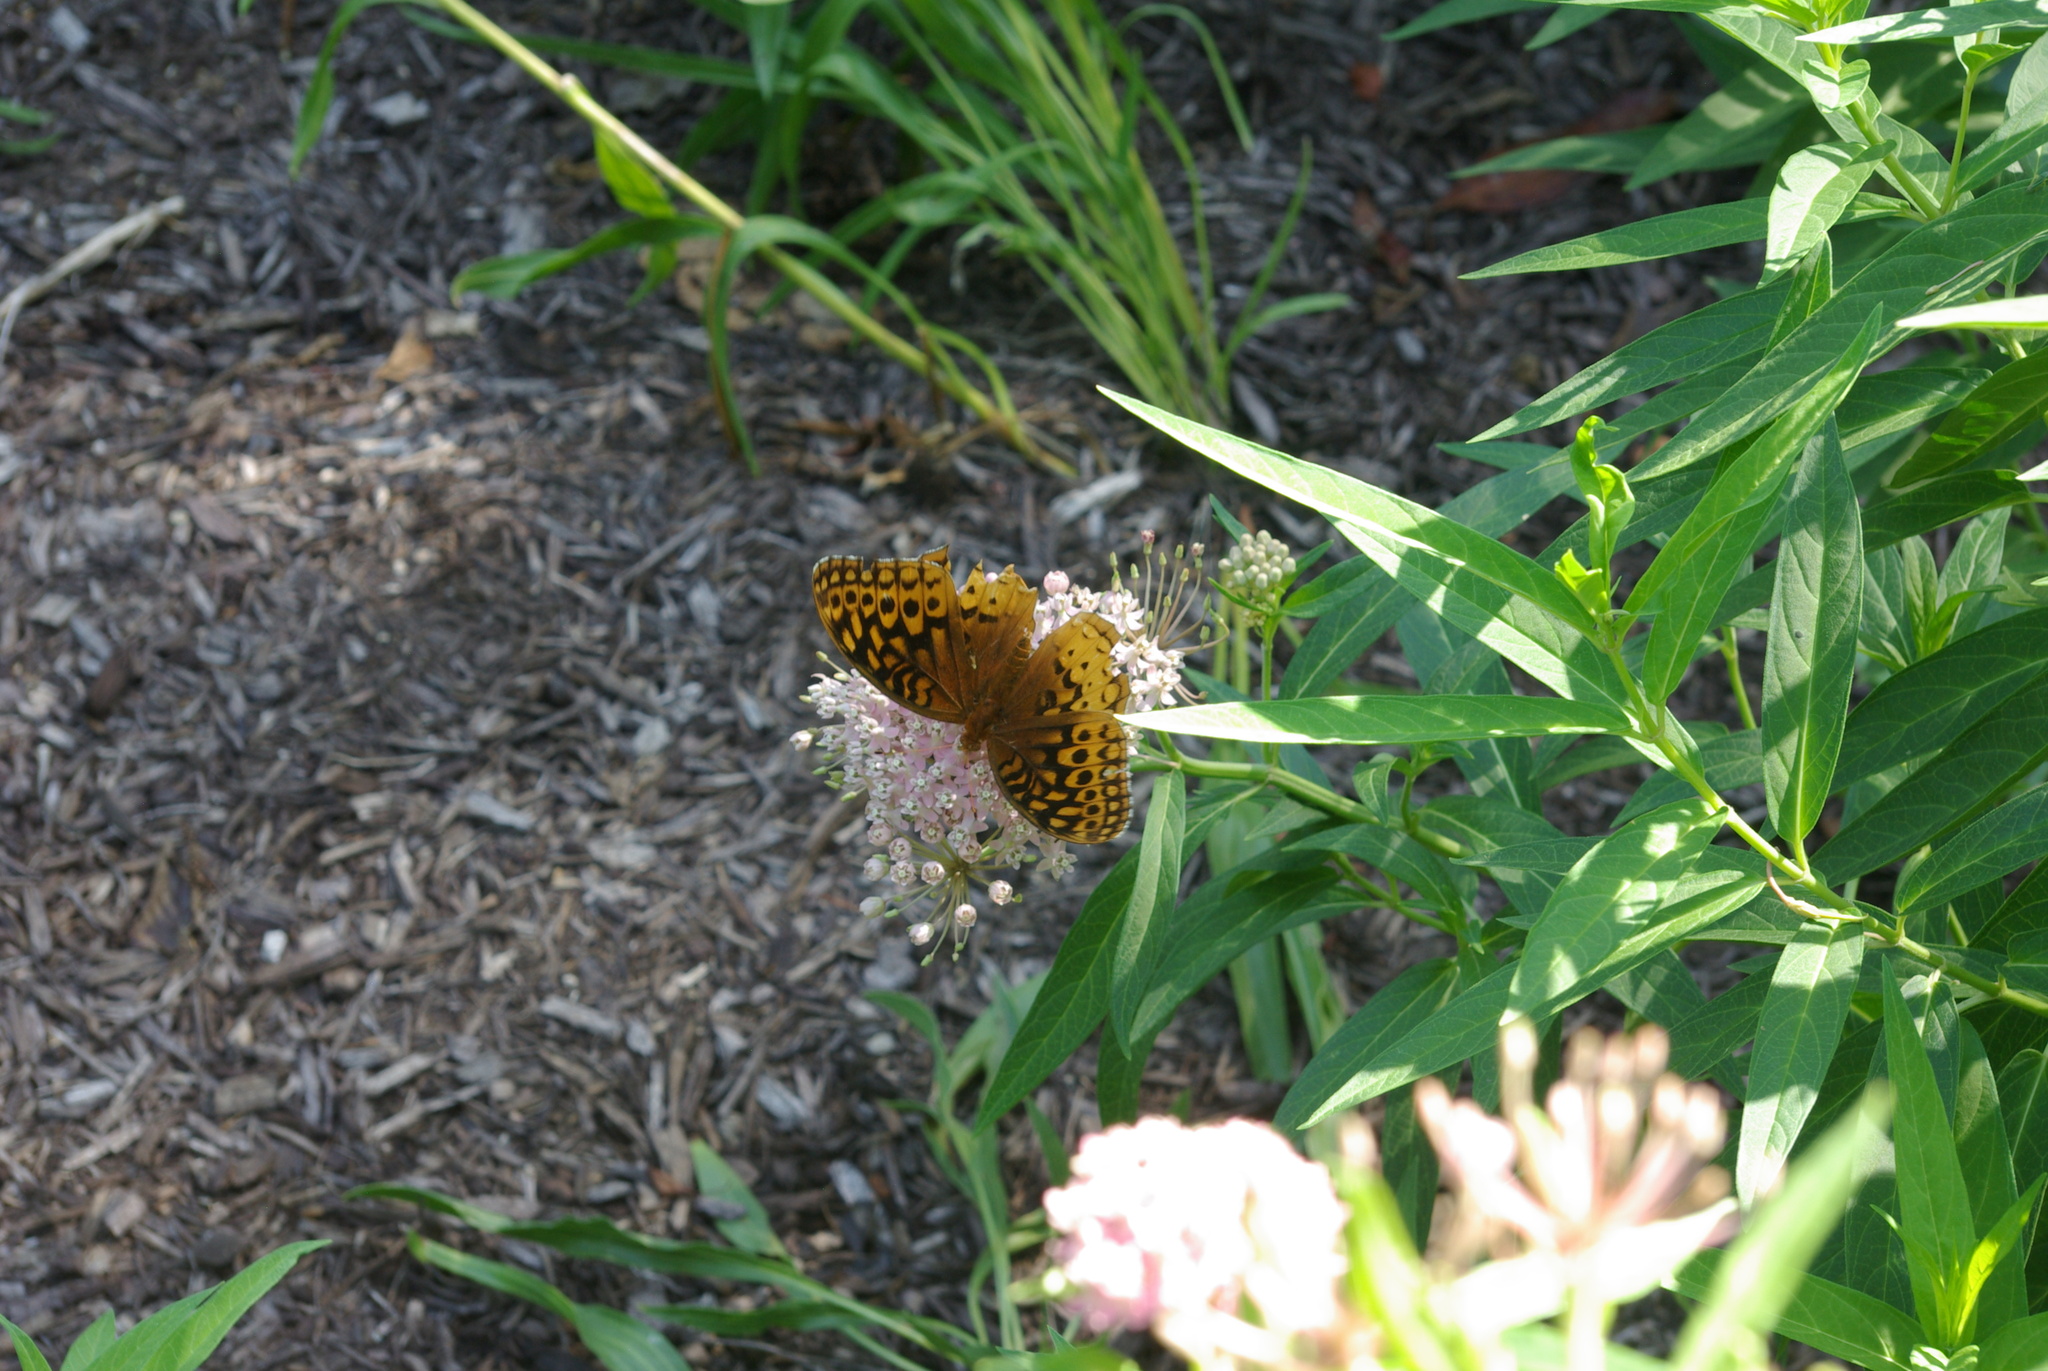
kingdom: Animalia
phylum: Arthropoda
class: Insecta
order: Lepidoptera
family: Nymphalidae
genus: Speyeria
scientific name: Speyeria cybele
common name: Great spangled fritillary
